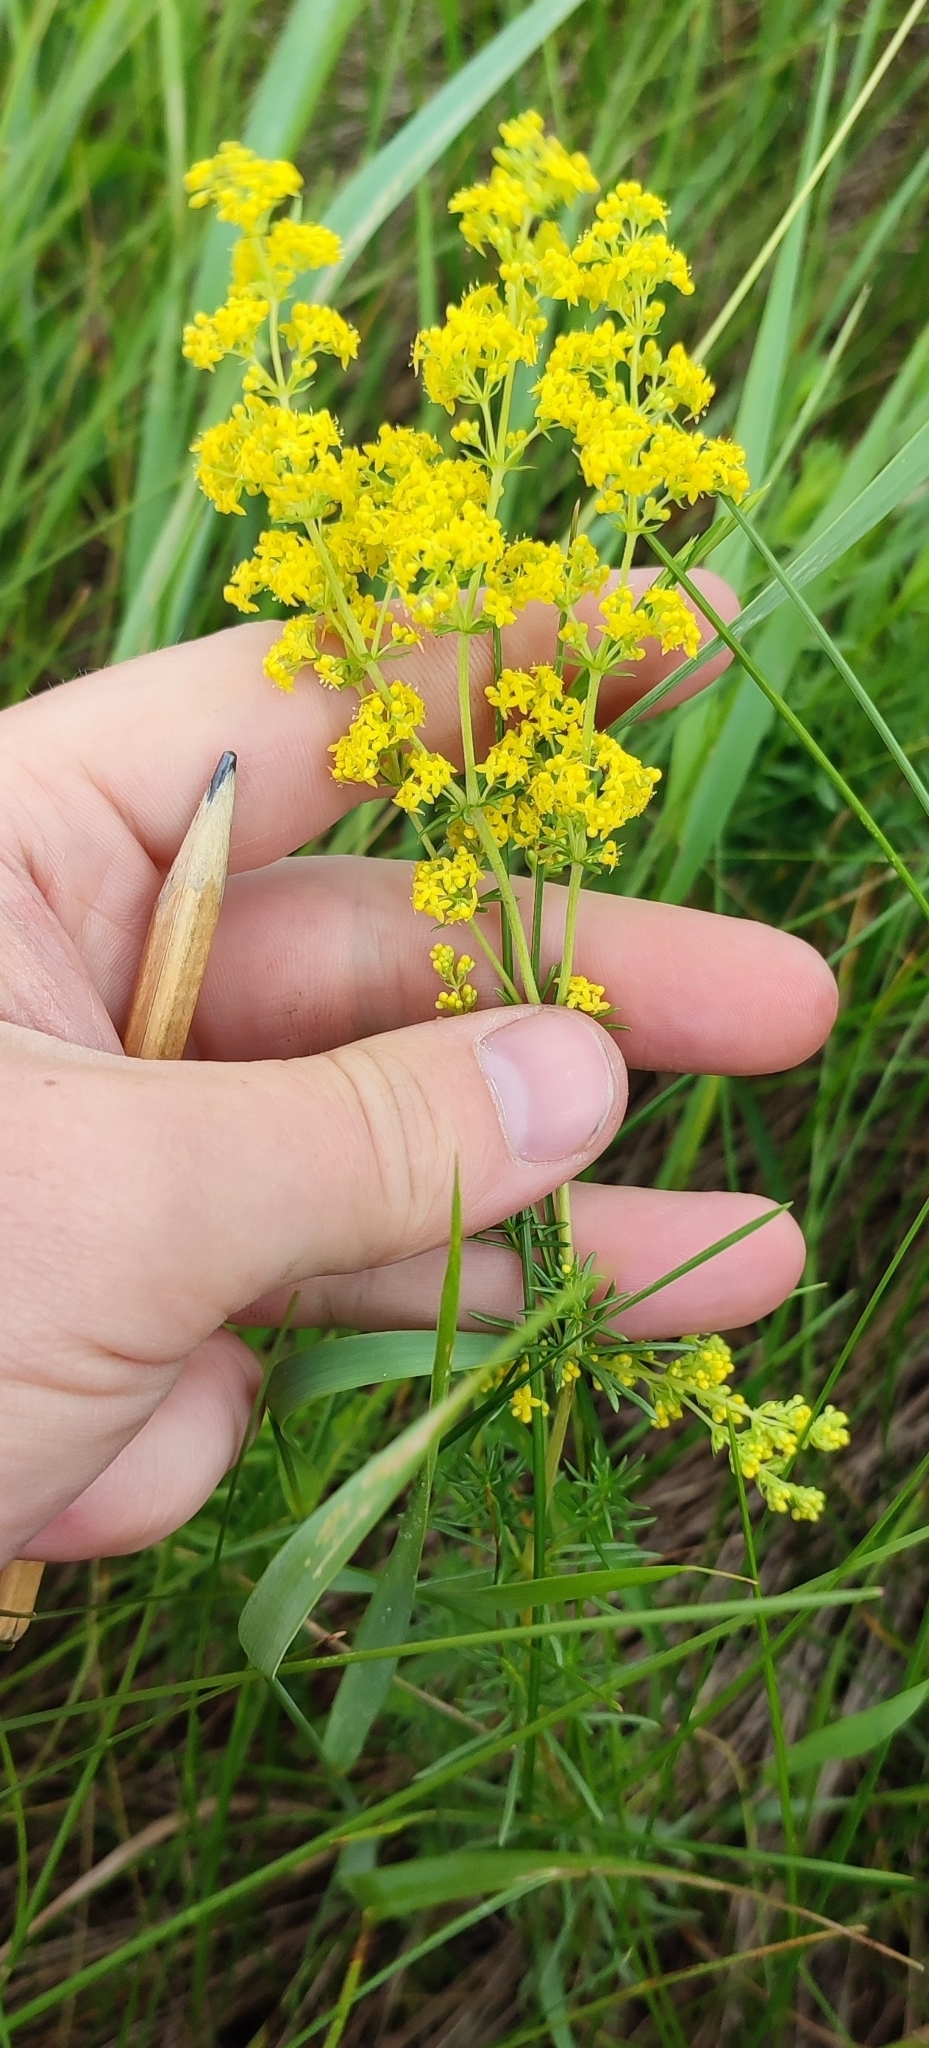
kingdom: Plantae
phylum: Tracheophyta
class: Magnoliopsida
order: Gentianales
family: Rubiaceae
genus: Galium
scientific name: Galium verum
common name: Lady's bedstraw
